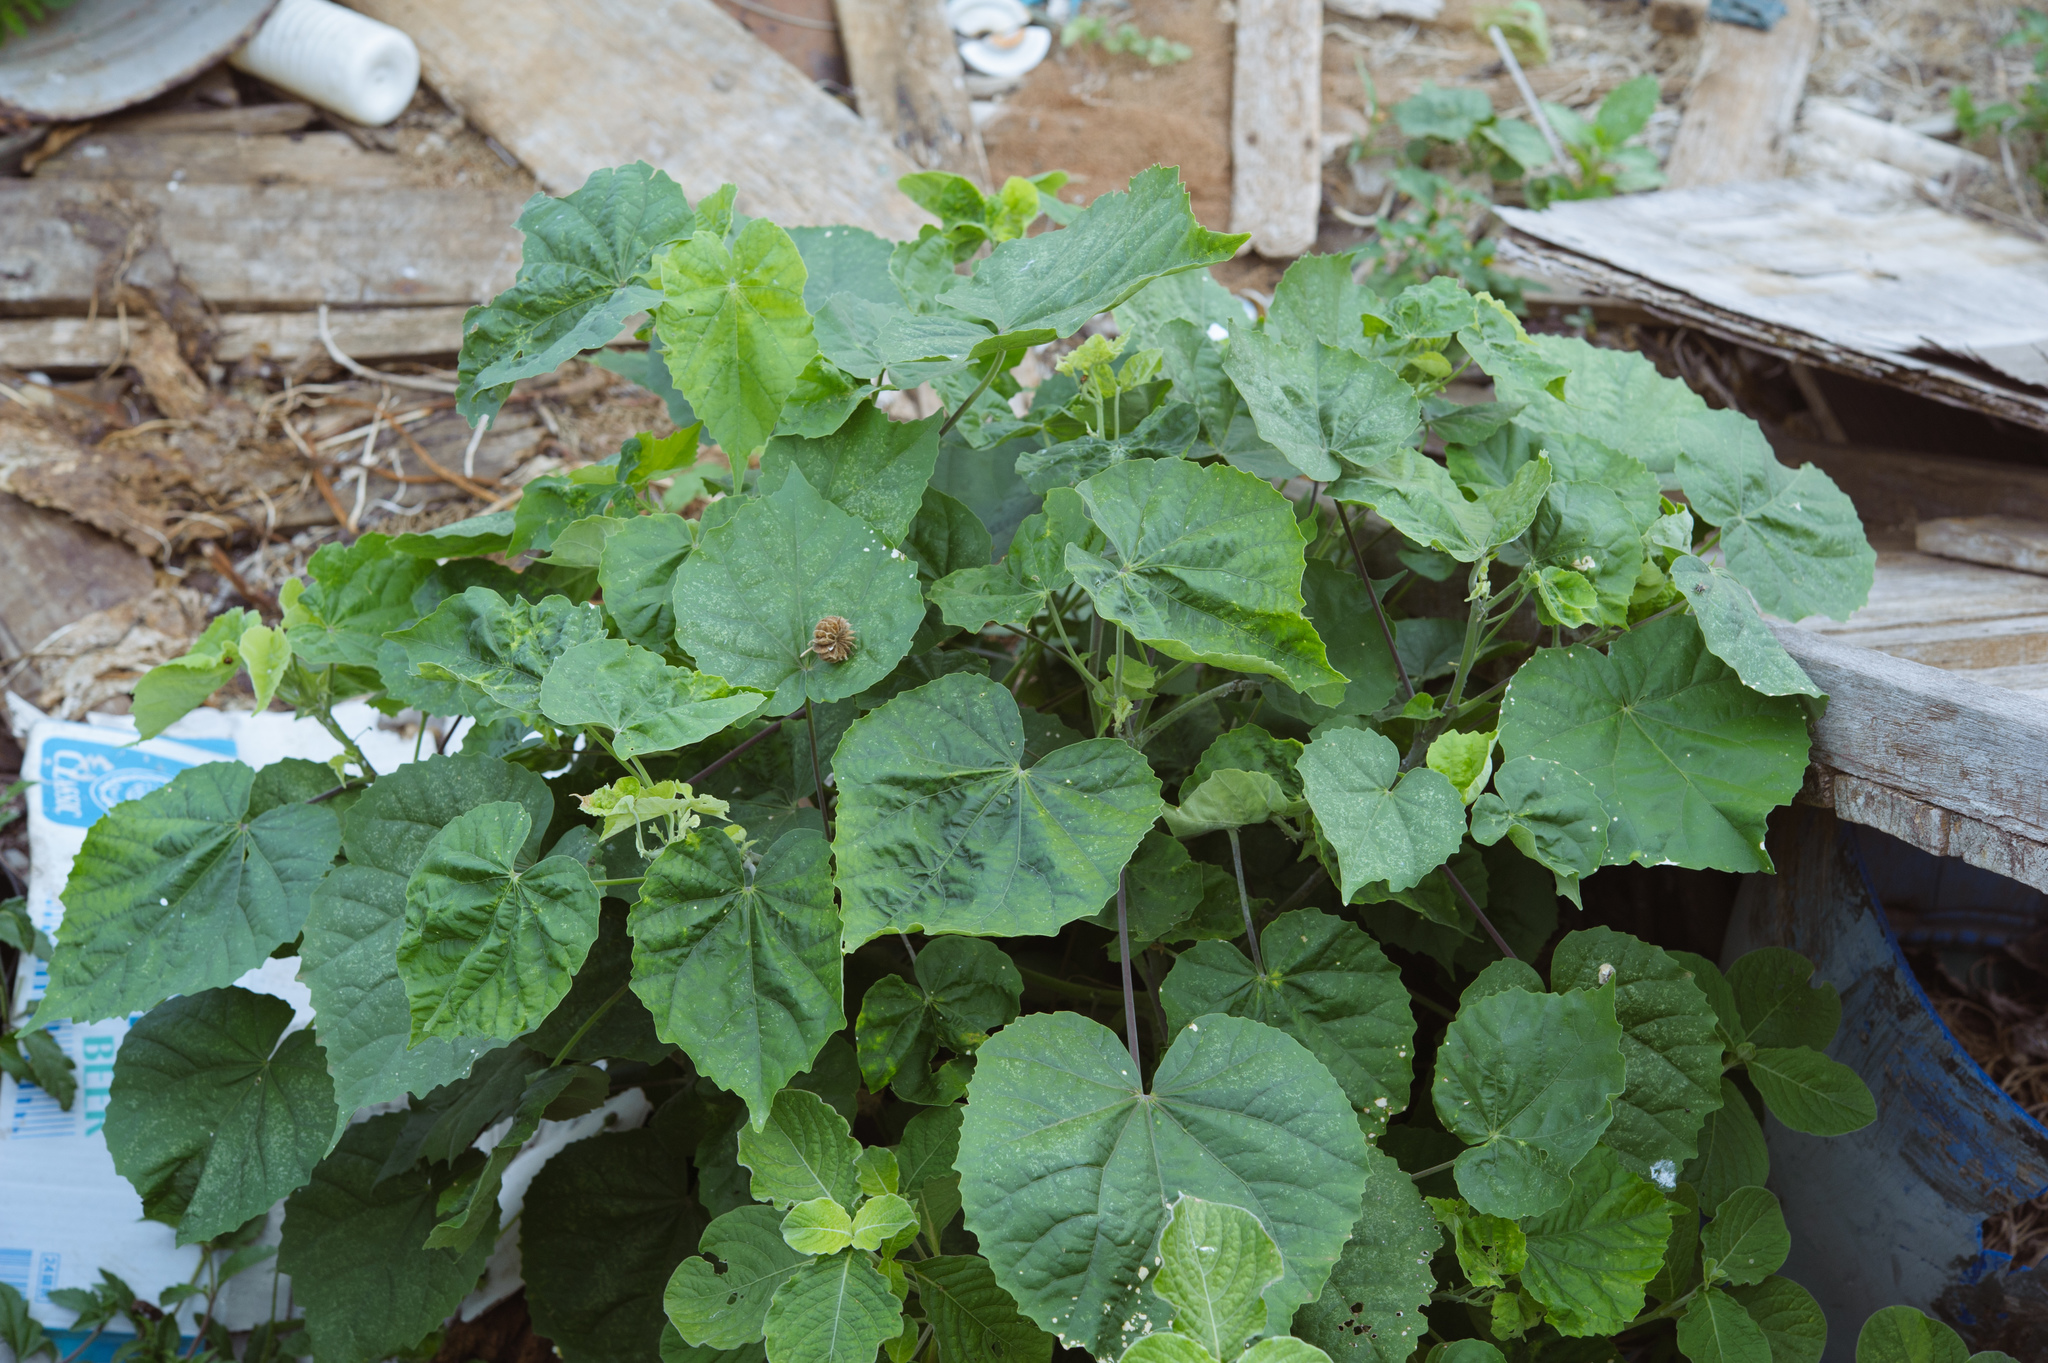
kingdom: Plantae
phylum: Tracheophyta
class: Magnoliopsida
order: Malvales
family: Malvaceae
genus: Abutilon
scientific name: Abutilon indicum
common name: Indian abutilon
